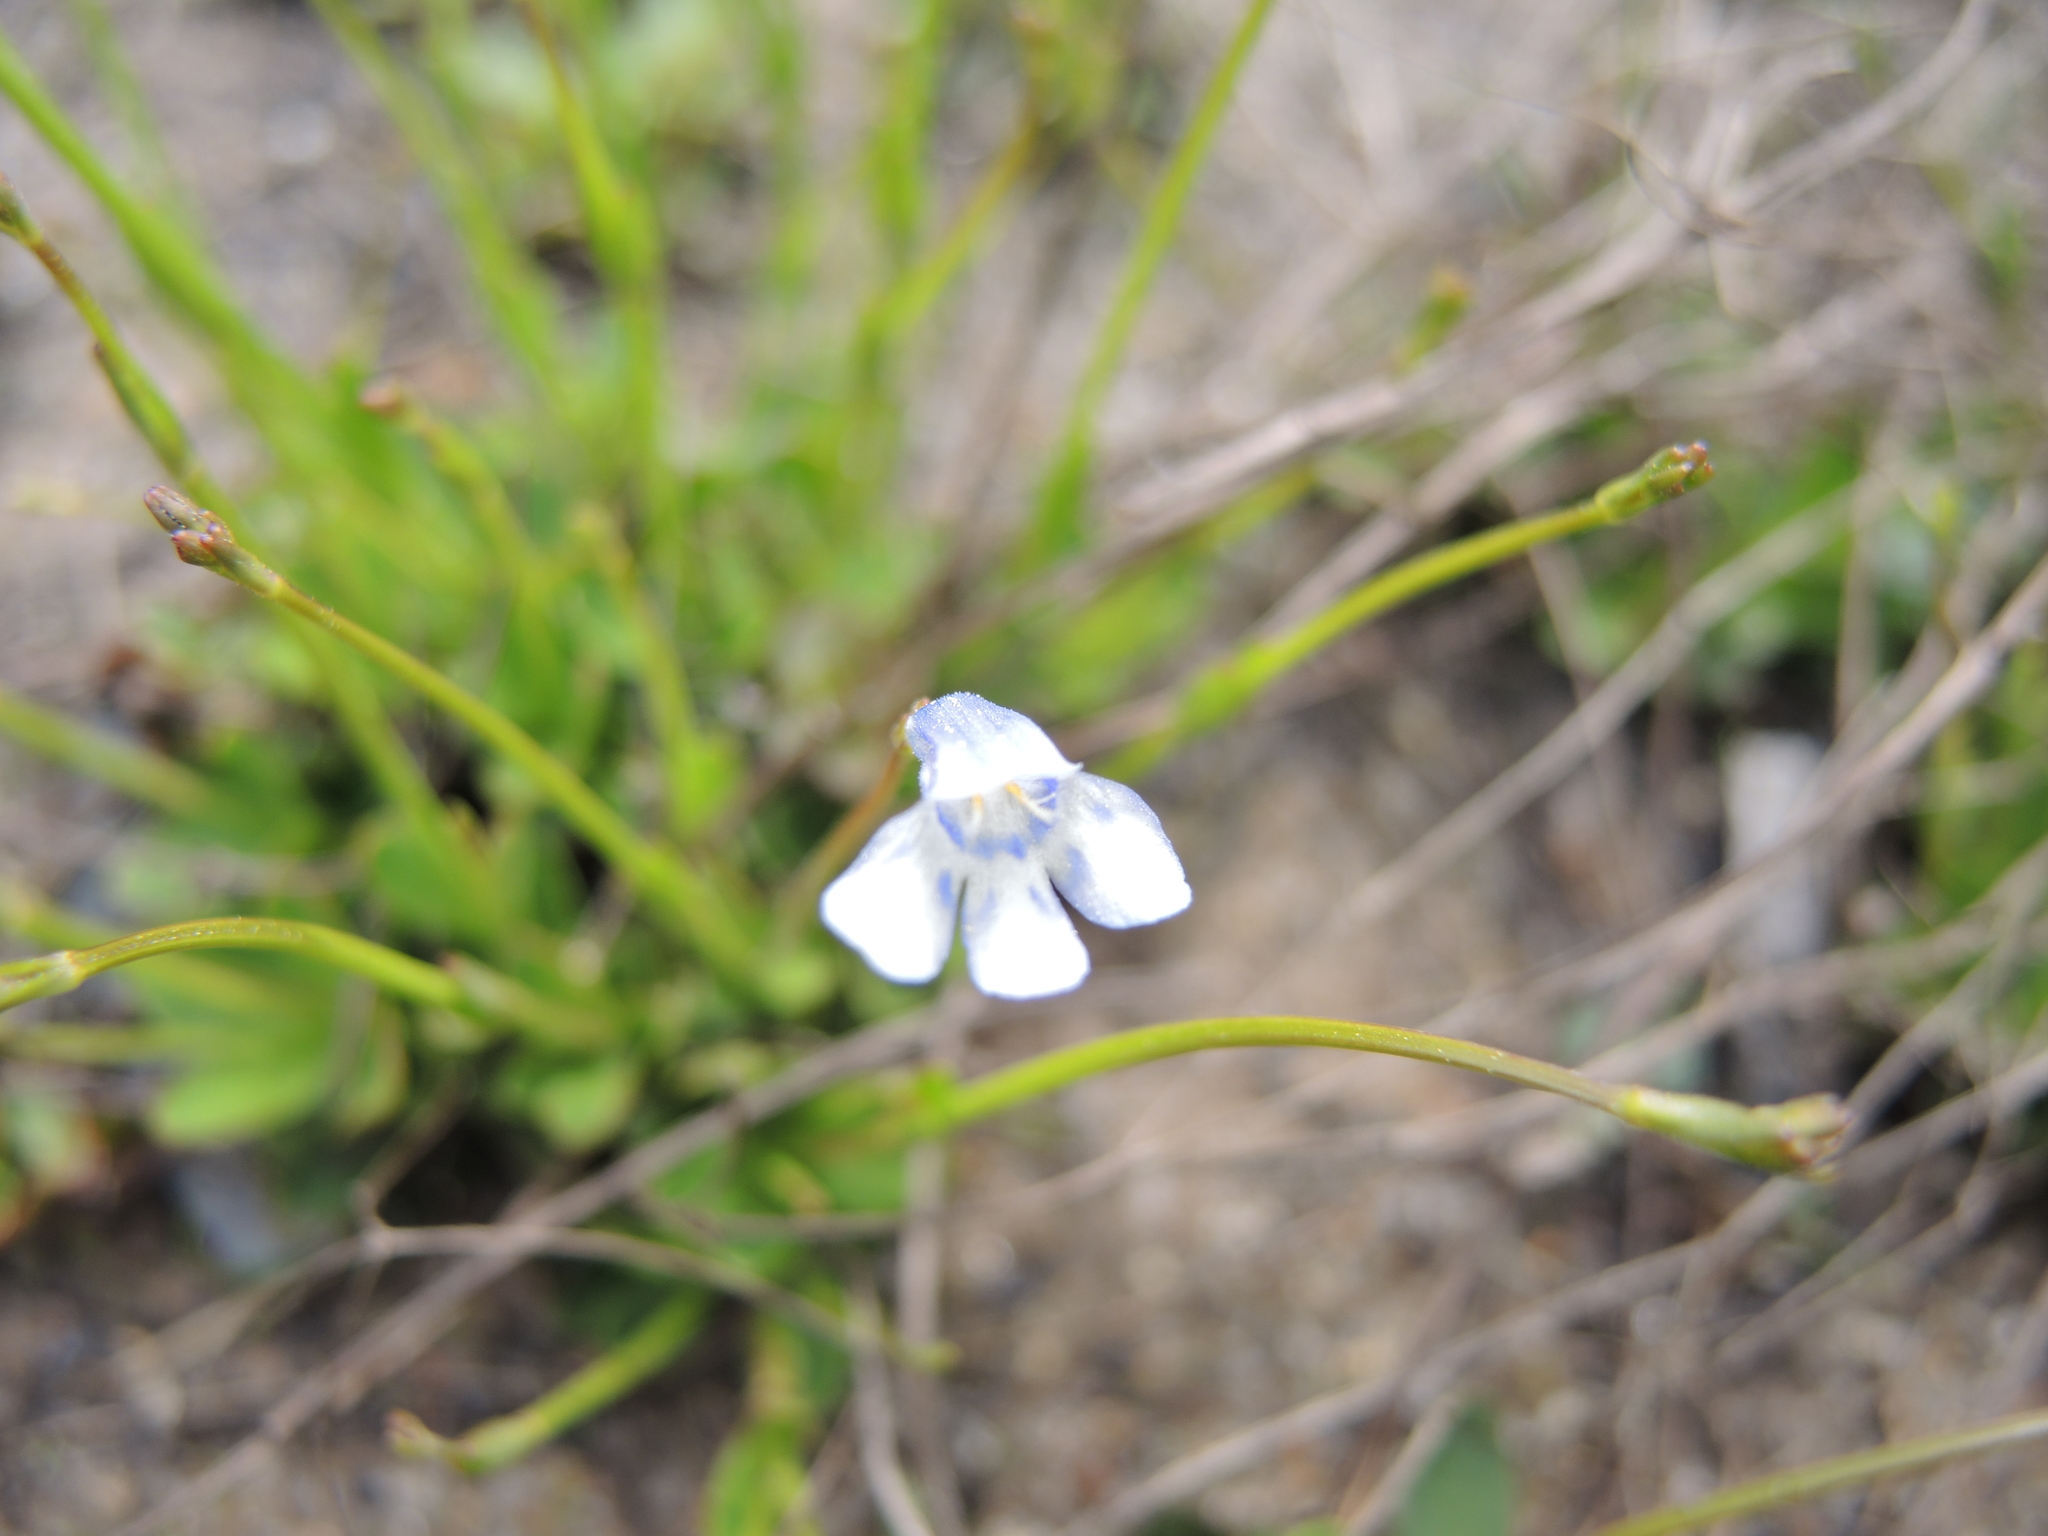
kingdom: Plantae
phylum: Tracheophyta
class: Magnoliopsida
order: Lamiales
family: Linderniaceae
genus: Lindernia
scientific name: Lindernia monticola
